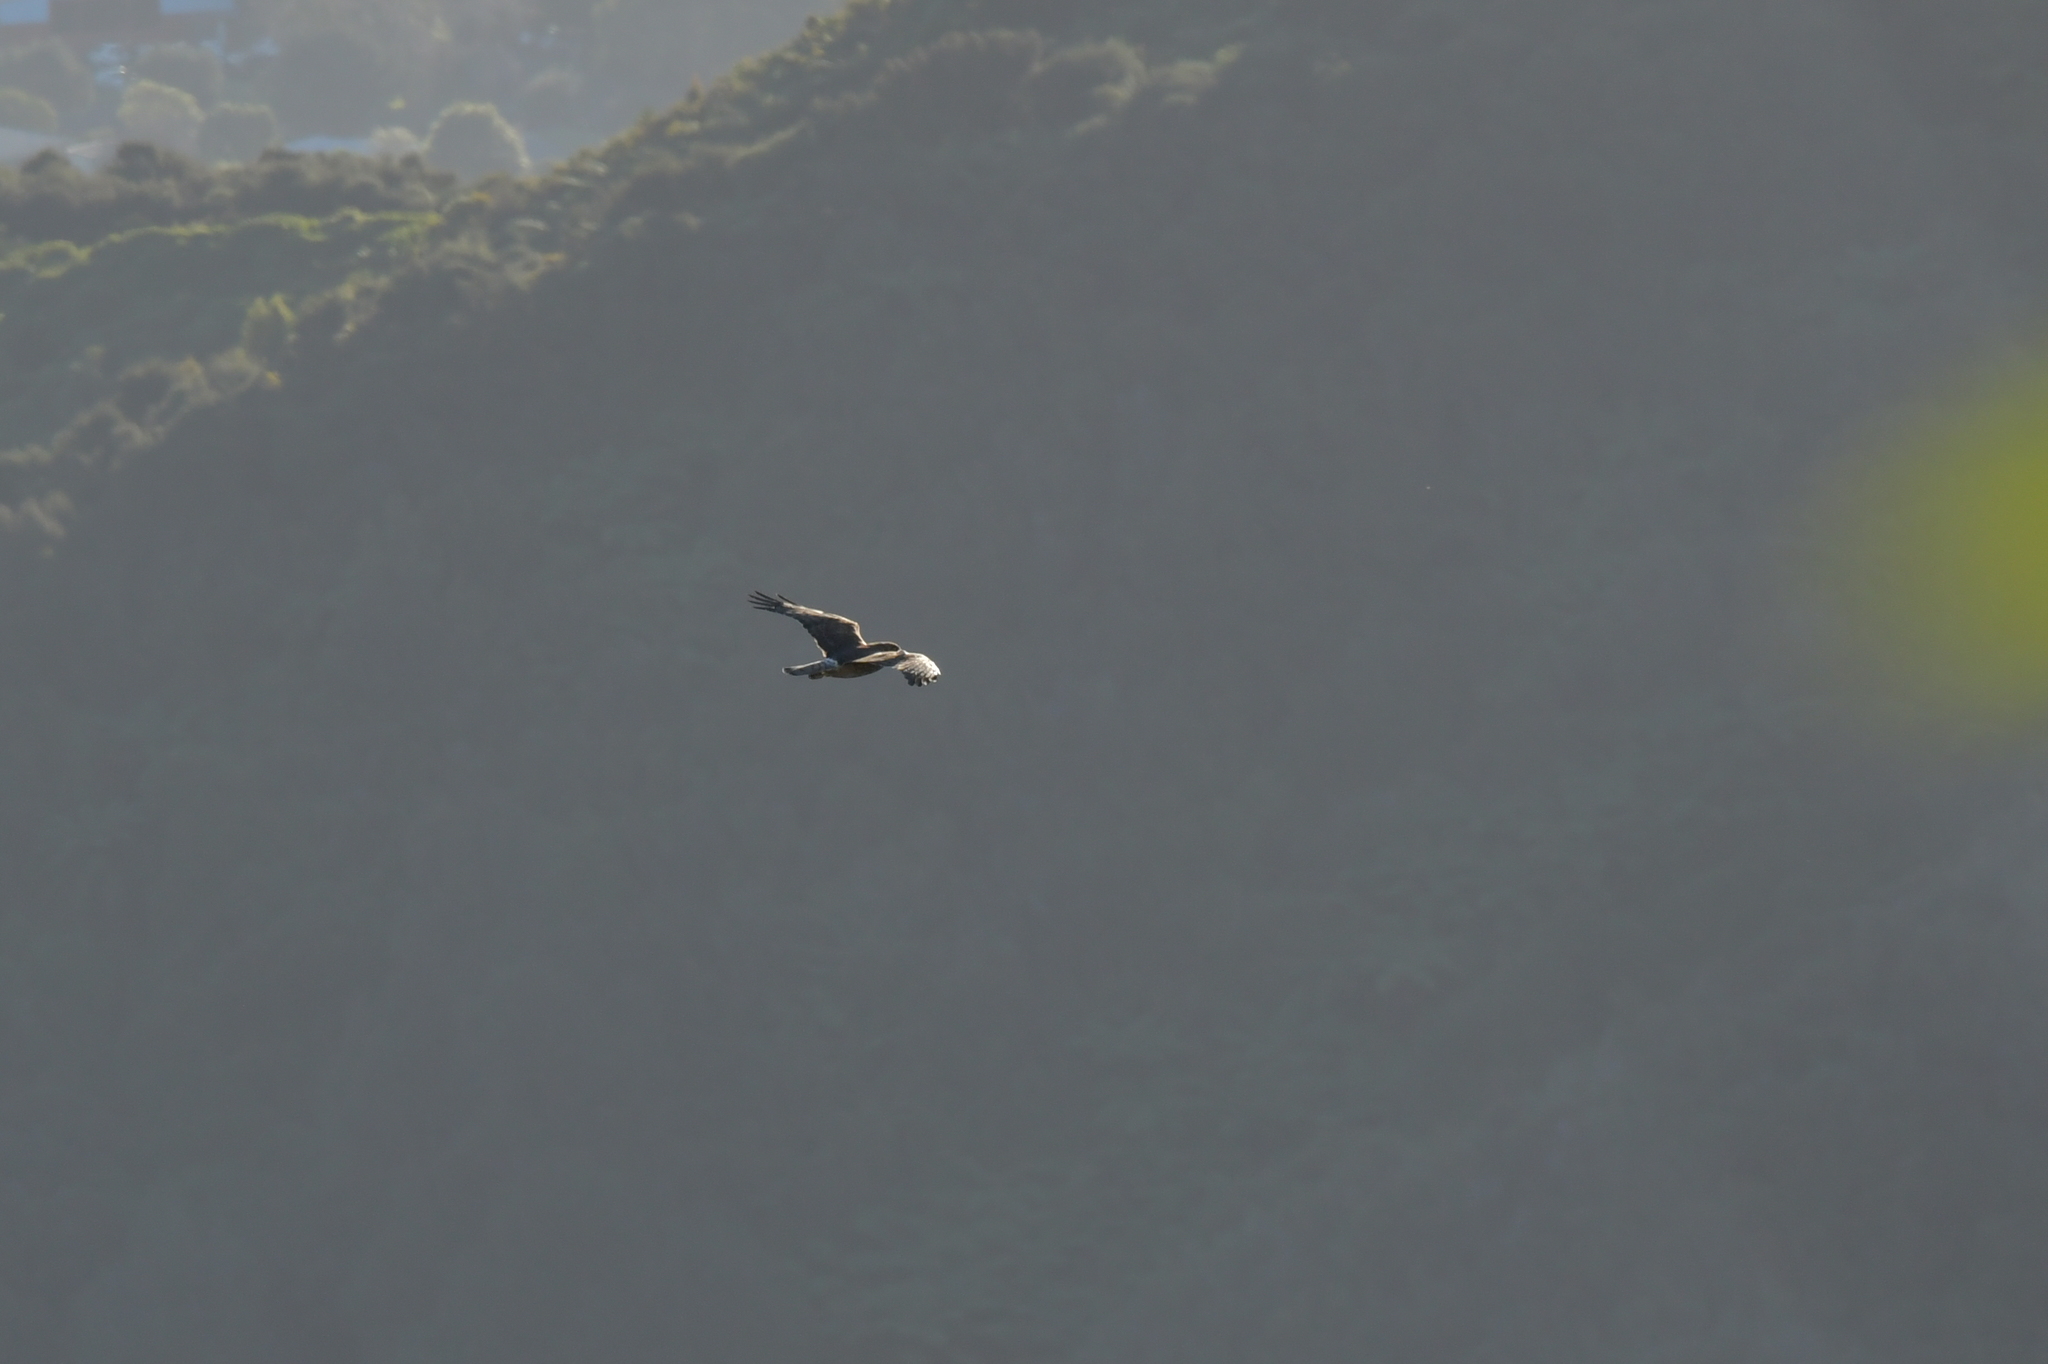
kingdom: Animalia
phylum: Chordata
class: Aves
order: Accipitriformes
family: Accipitridae
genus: Circus
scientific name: Circus approximans
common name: Swamp harrier
